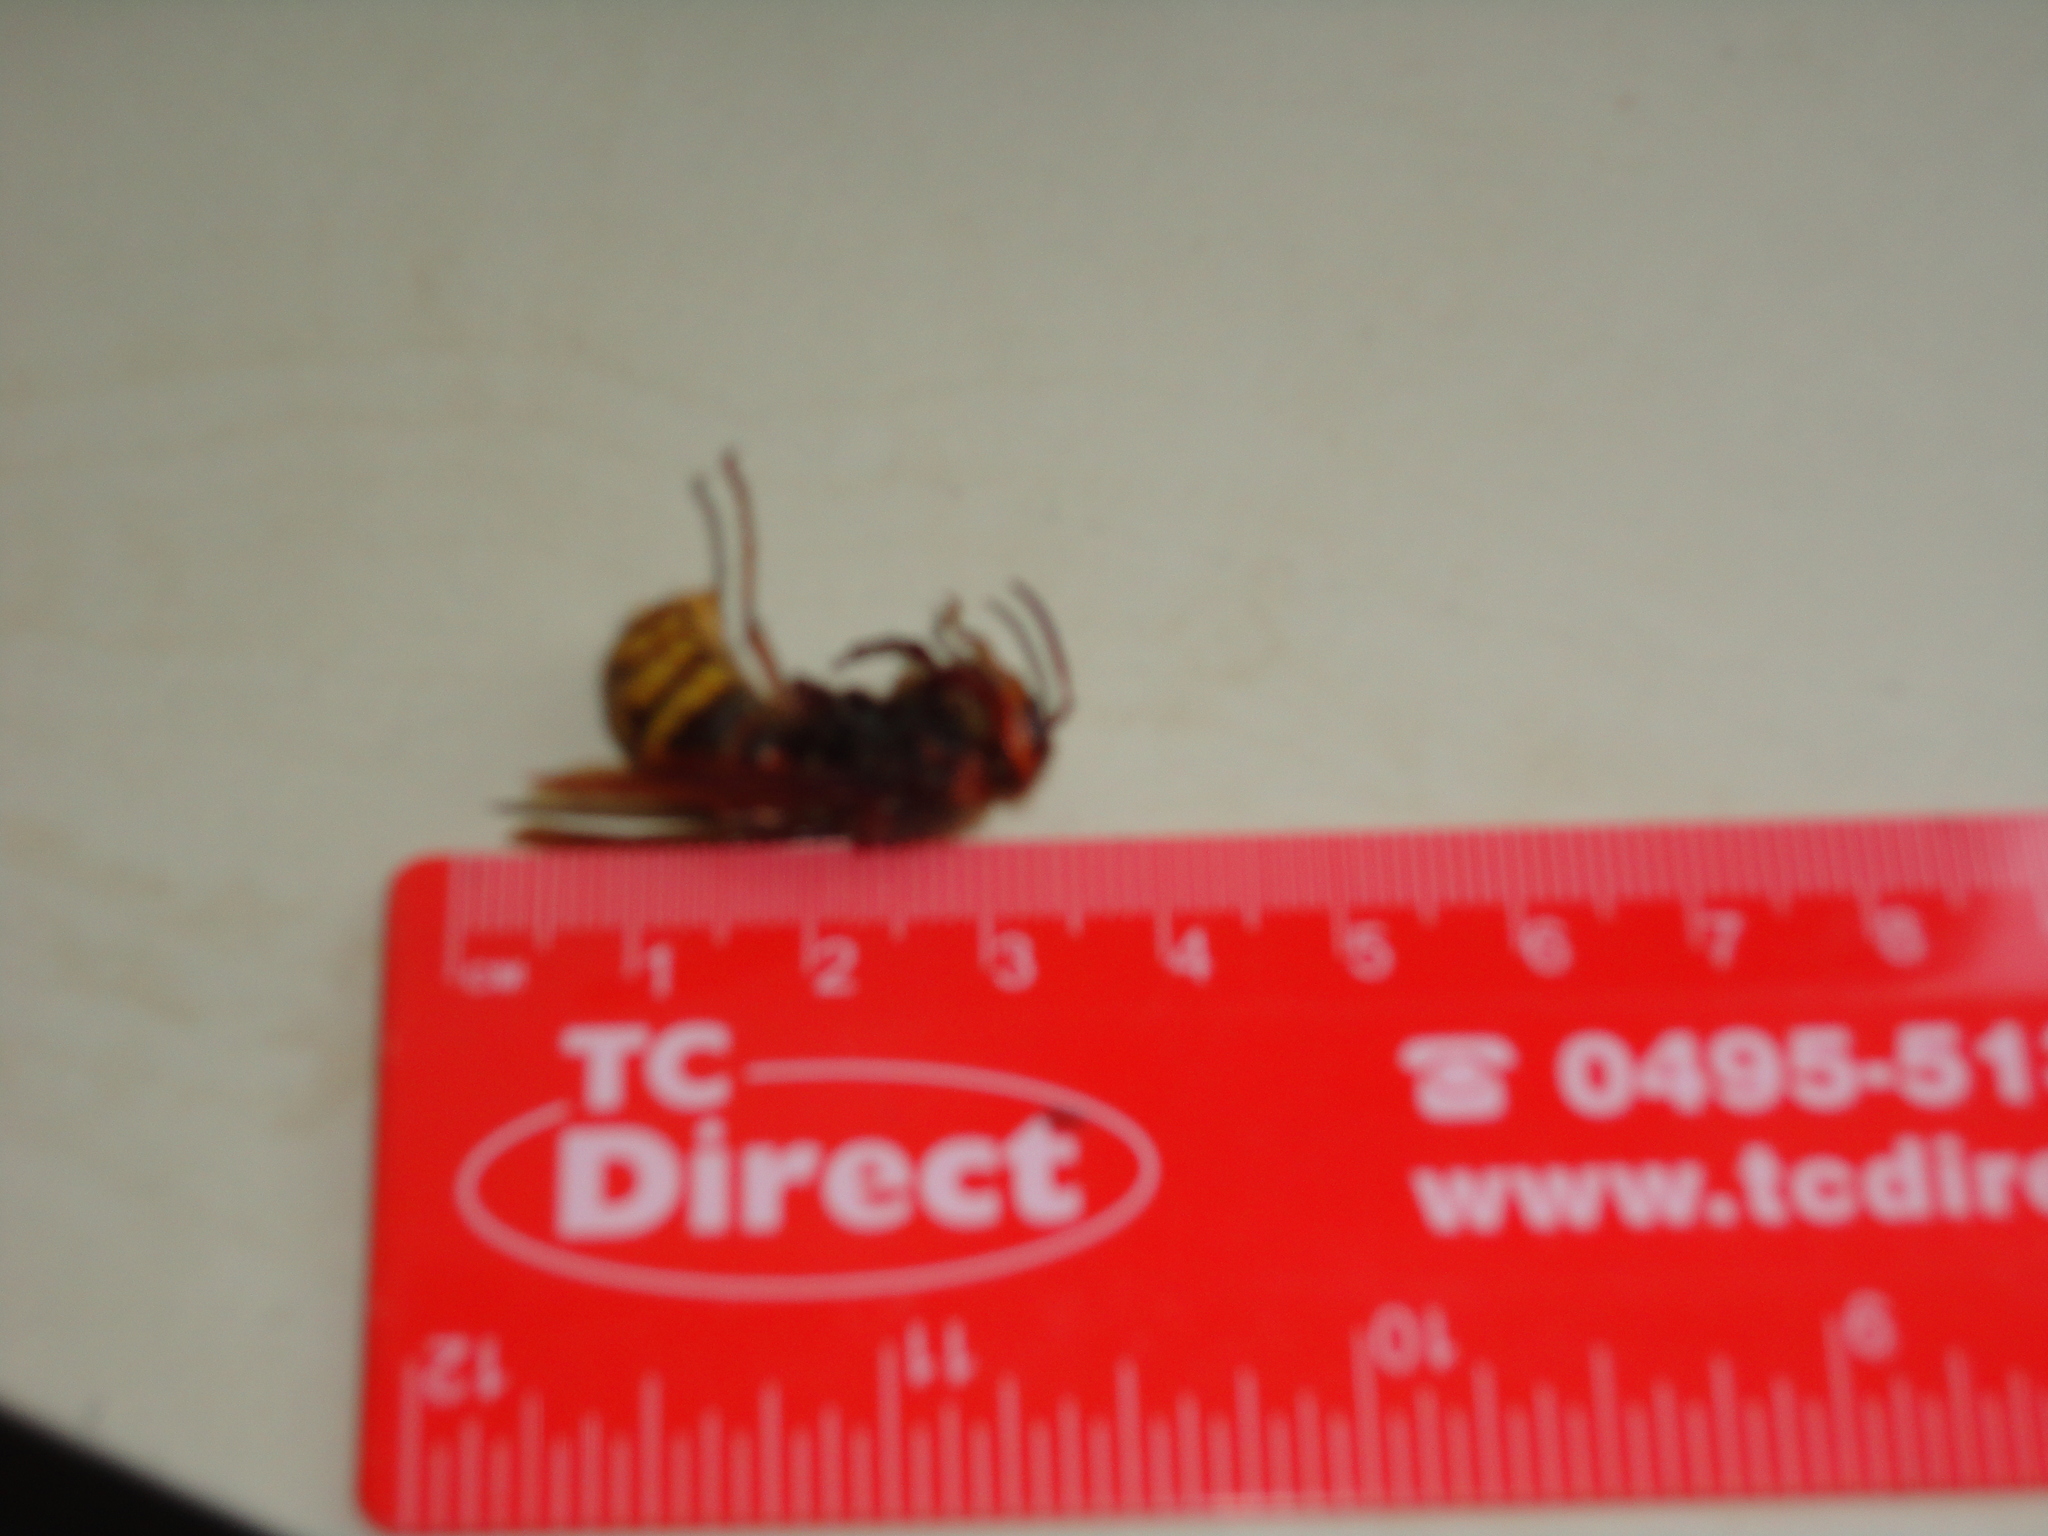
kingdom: Animalia
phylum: Arthropoda
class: Insecta
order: Hymenoptera
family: Vespidae
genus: Vespa
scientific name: Vespa crabro
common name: Hornet
